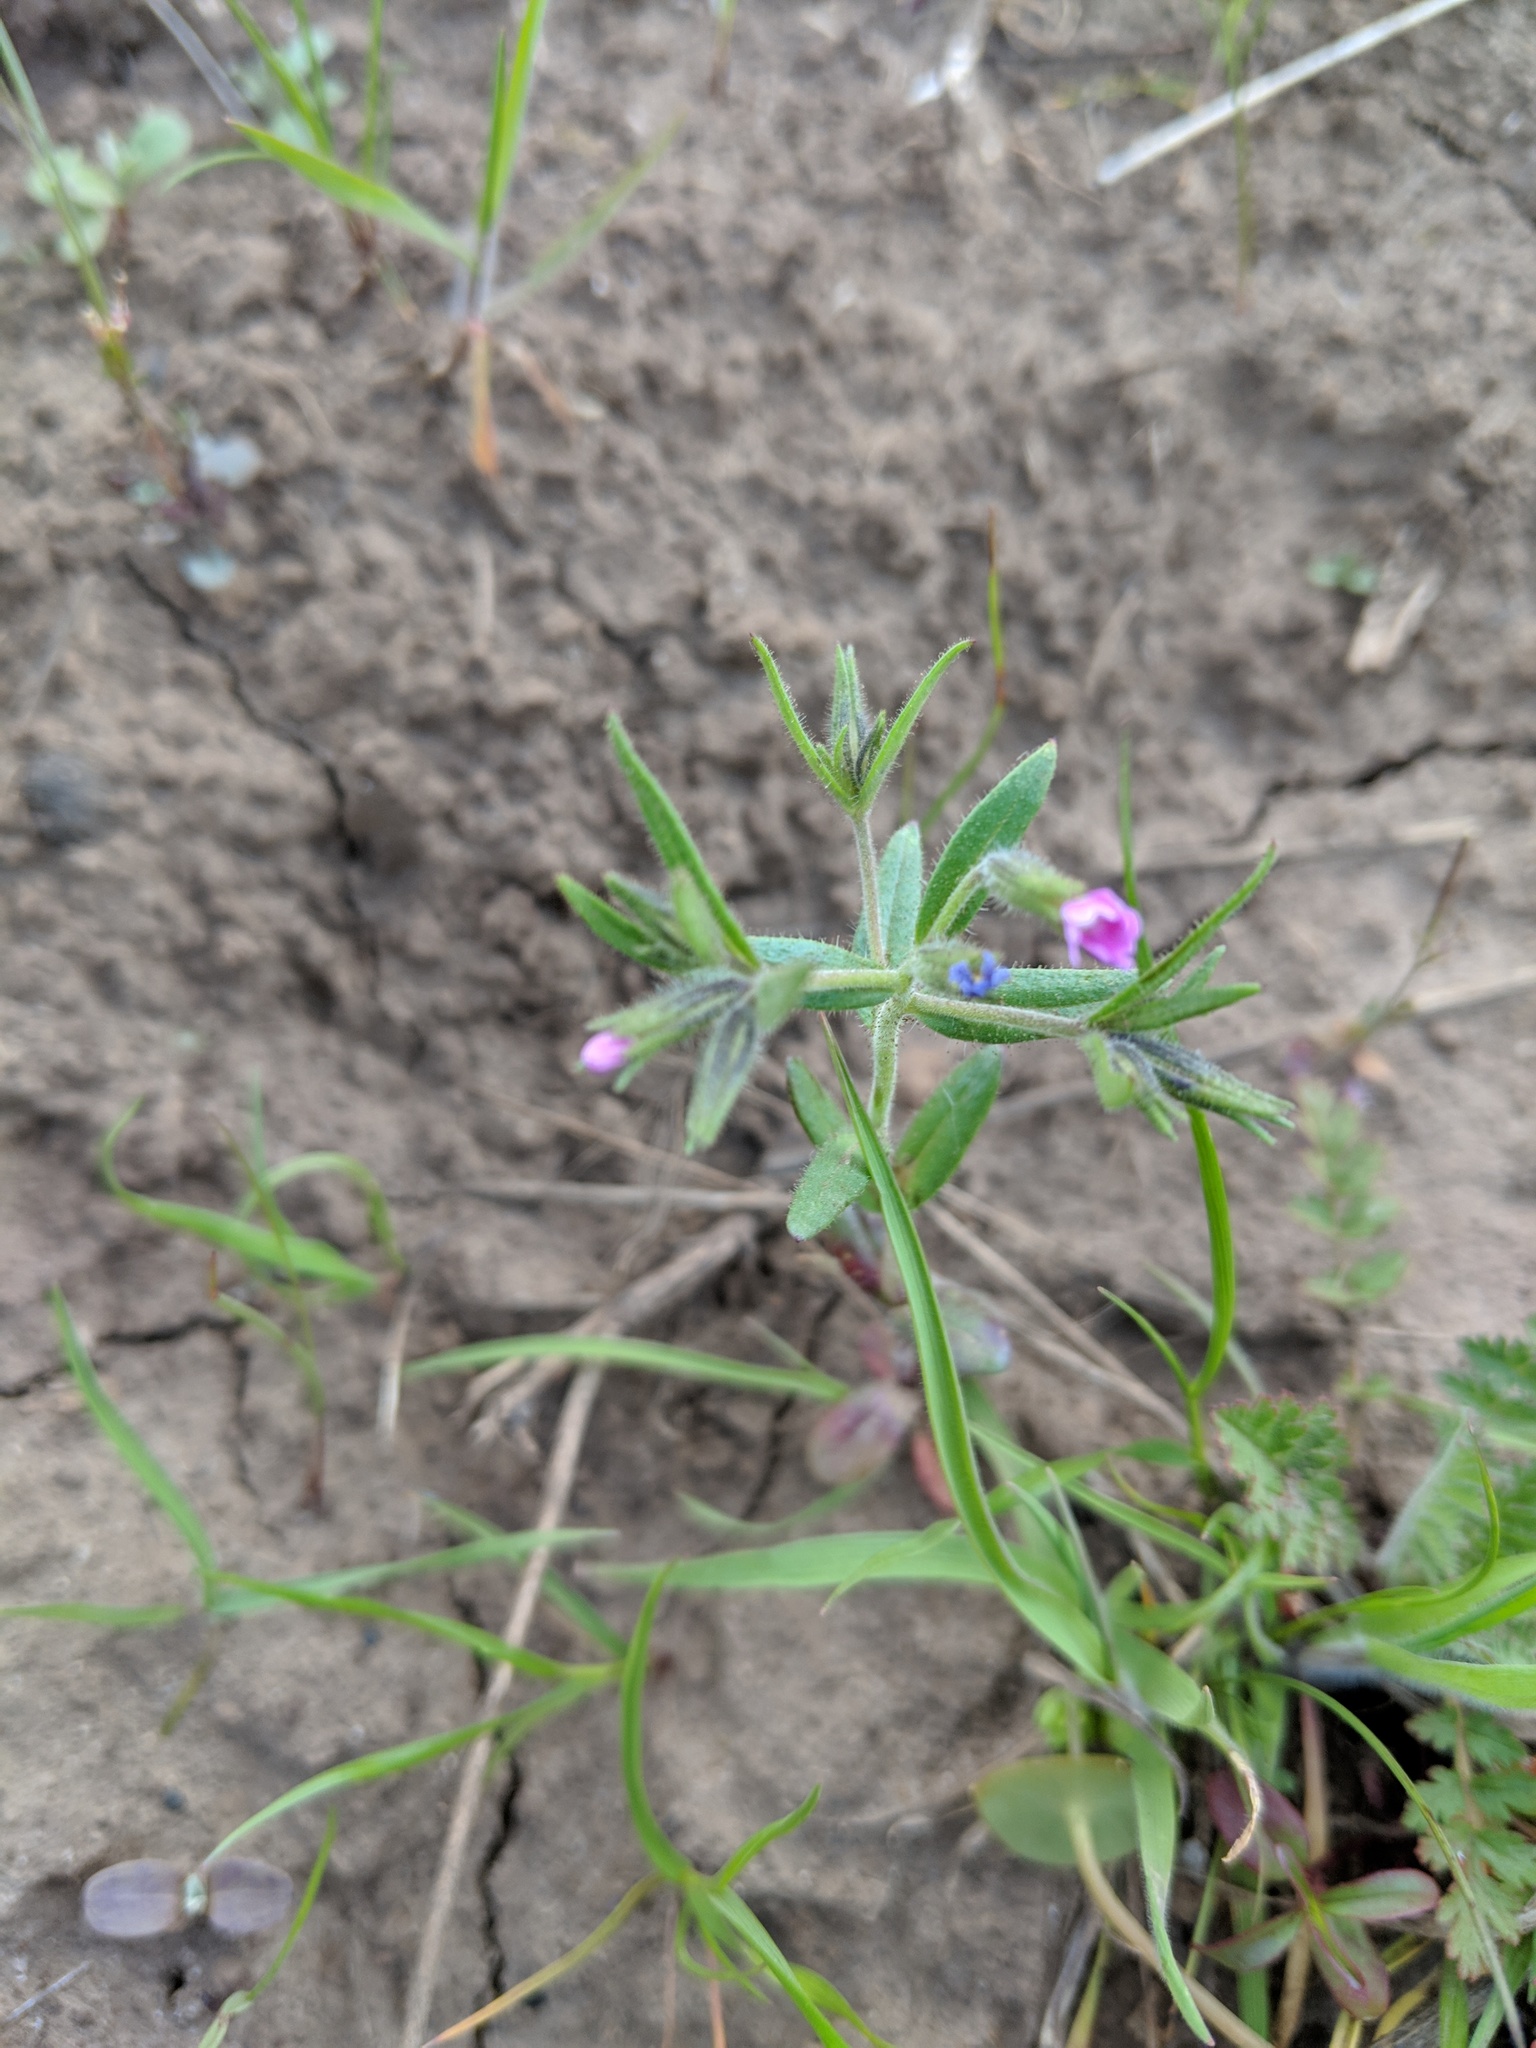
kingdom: Plantae
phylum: Tracheophyta
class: Magnoliopsida
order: Ericales
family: Polemoniaceae
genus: Phlox
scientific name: Phlox gracilis
